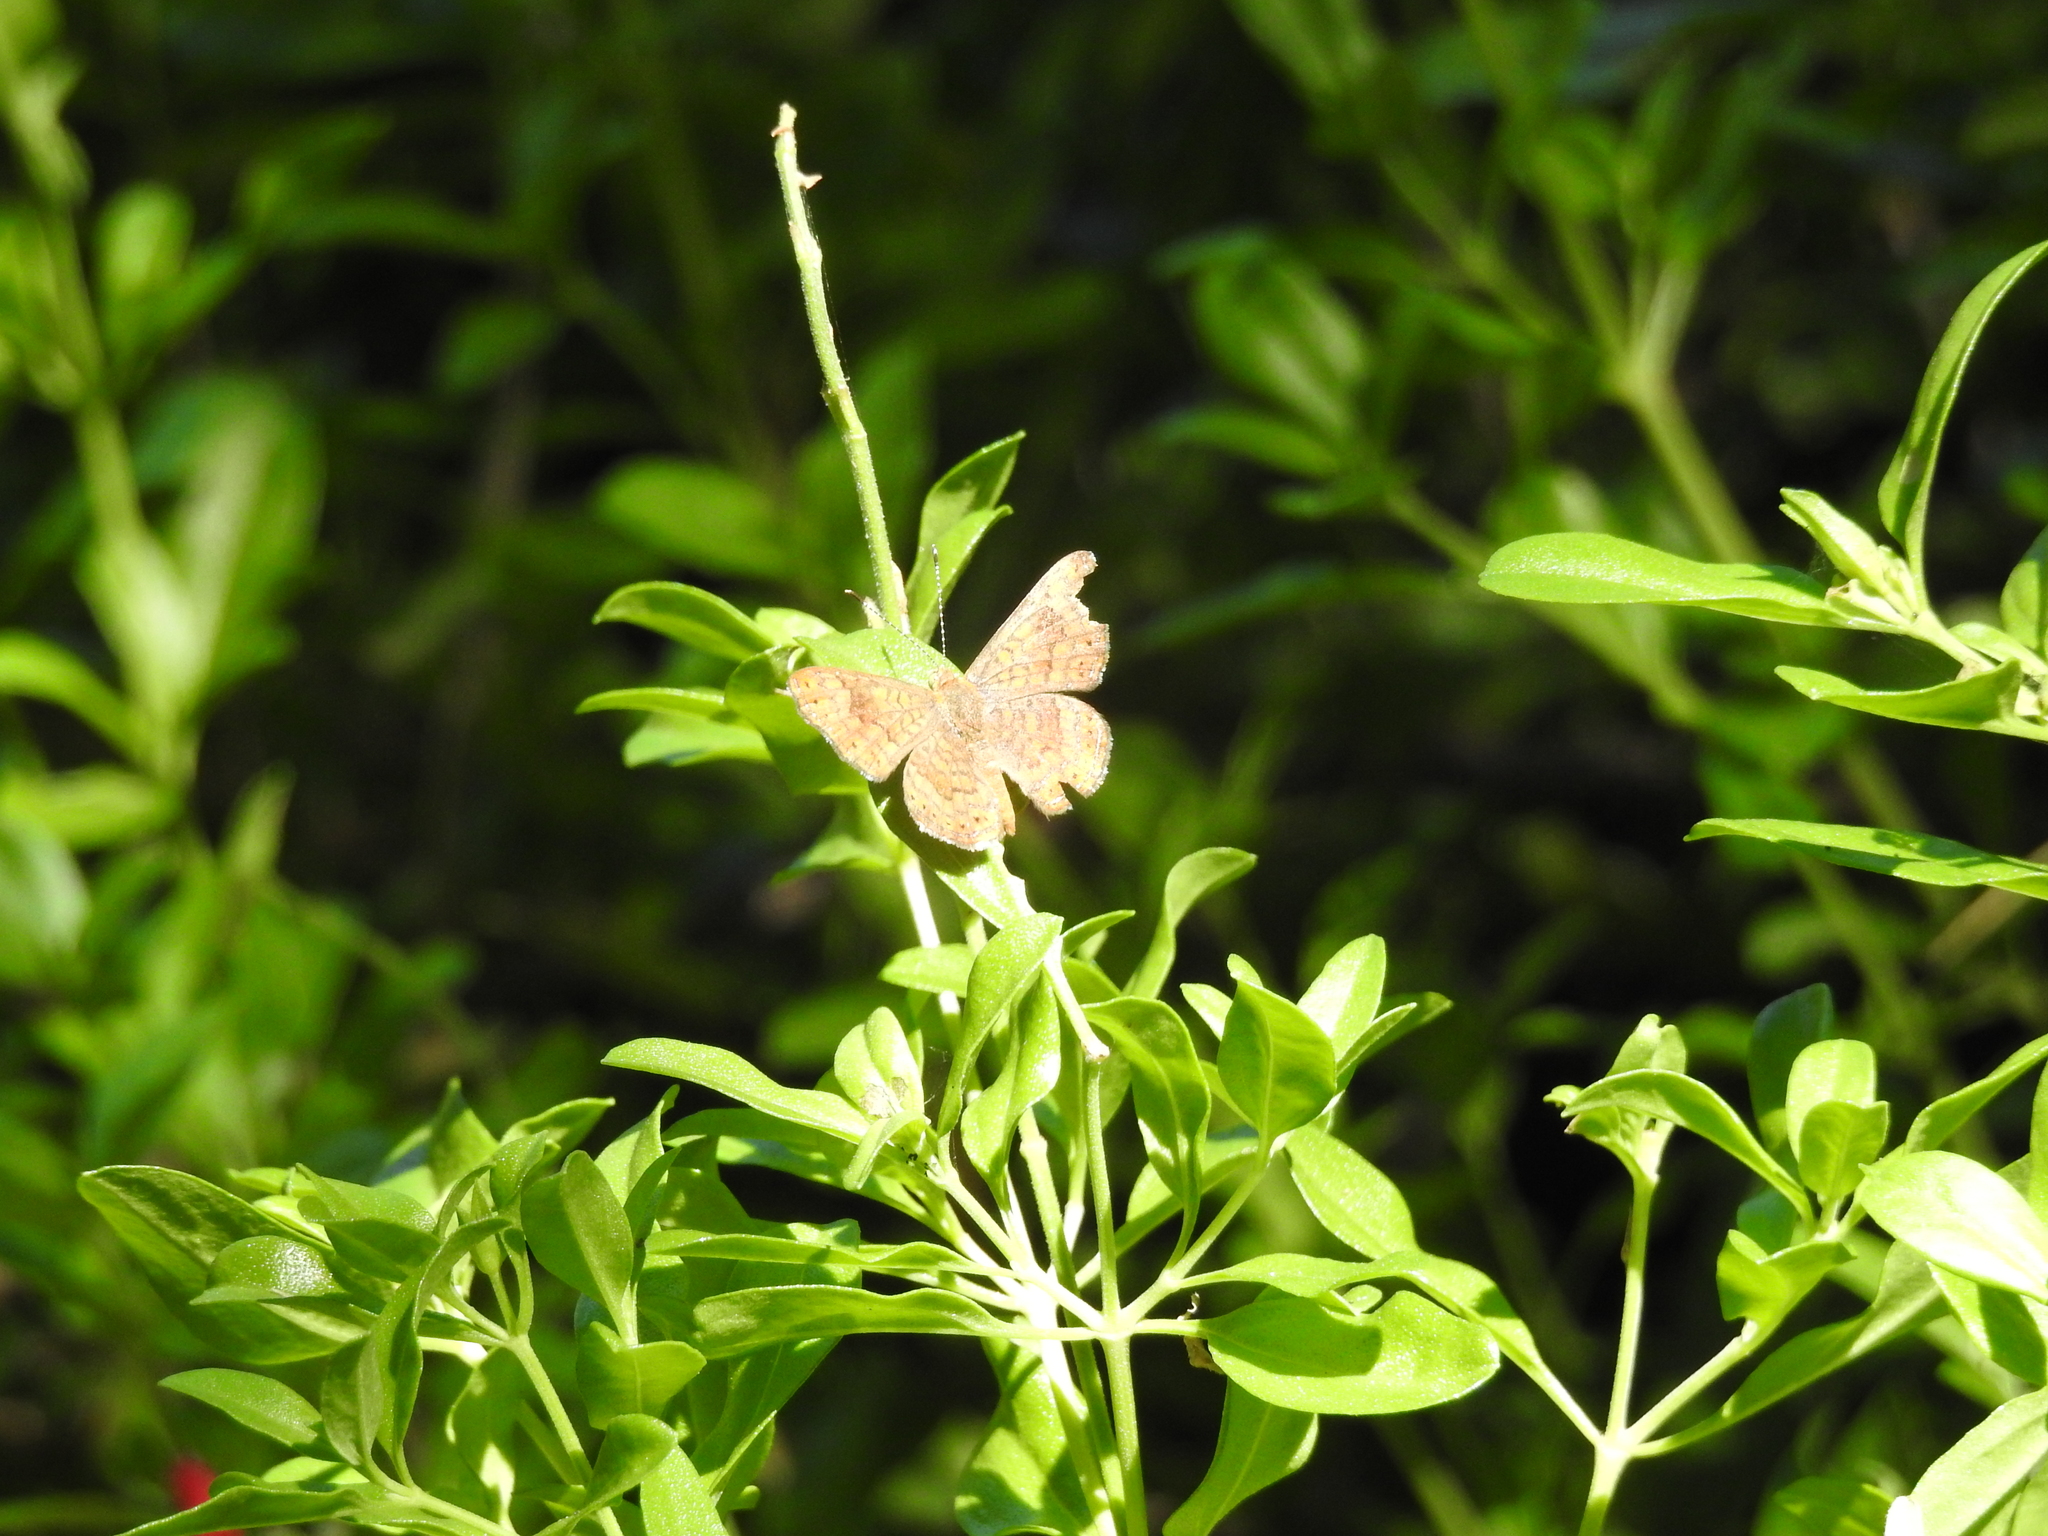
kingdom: Animalia
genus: Calephelis
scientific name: Calephelis nemesis
